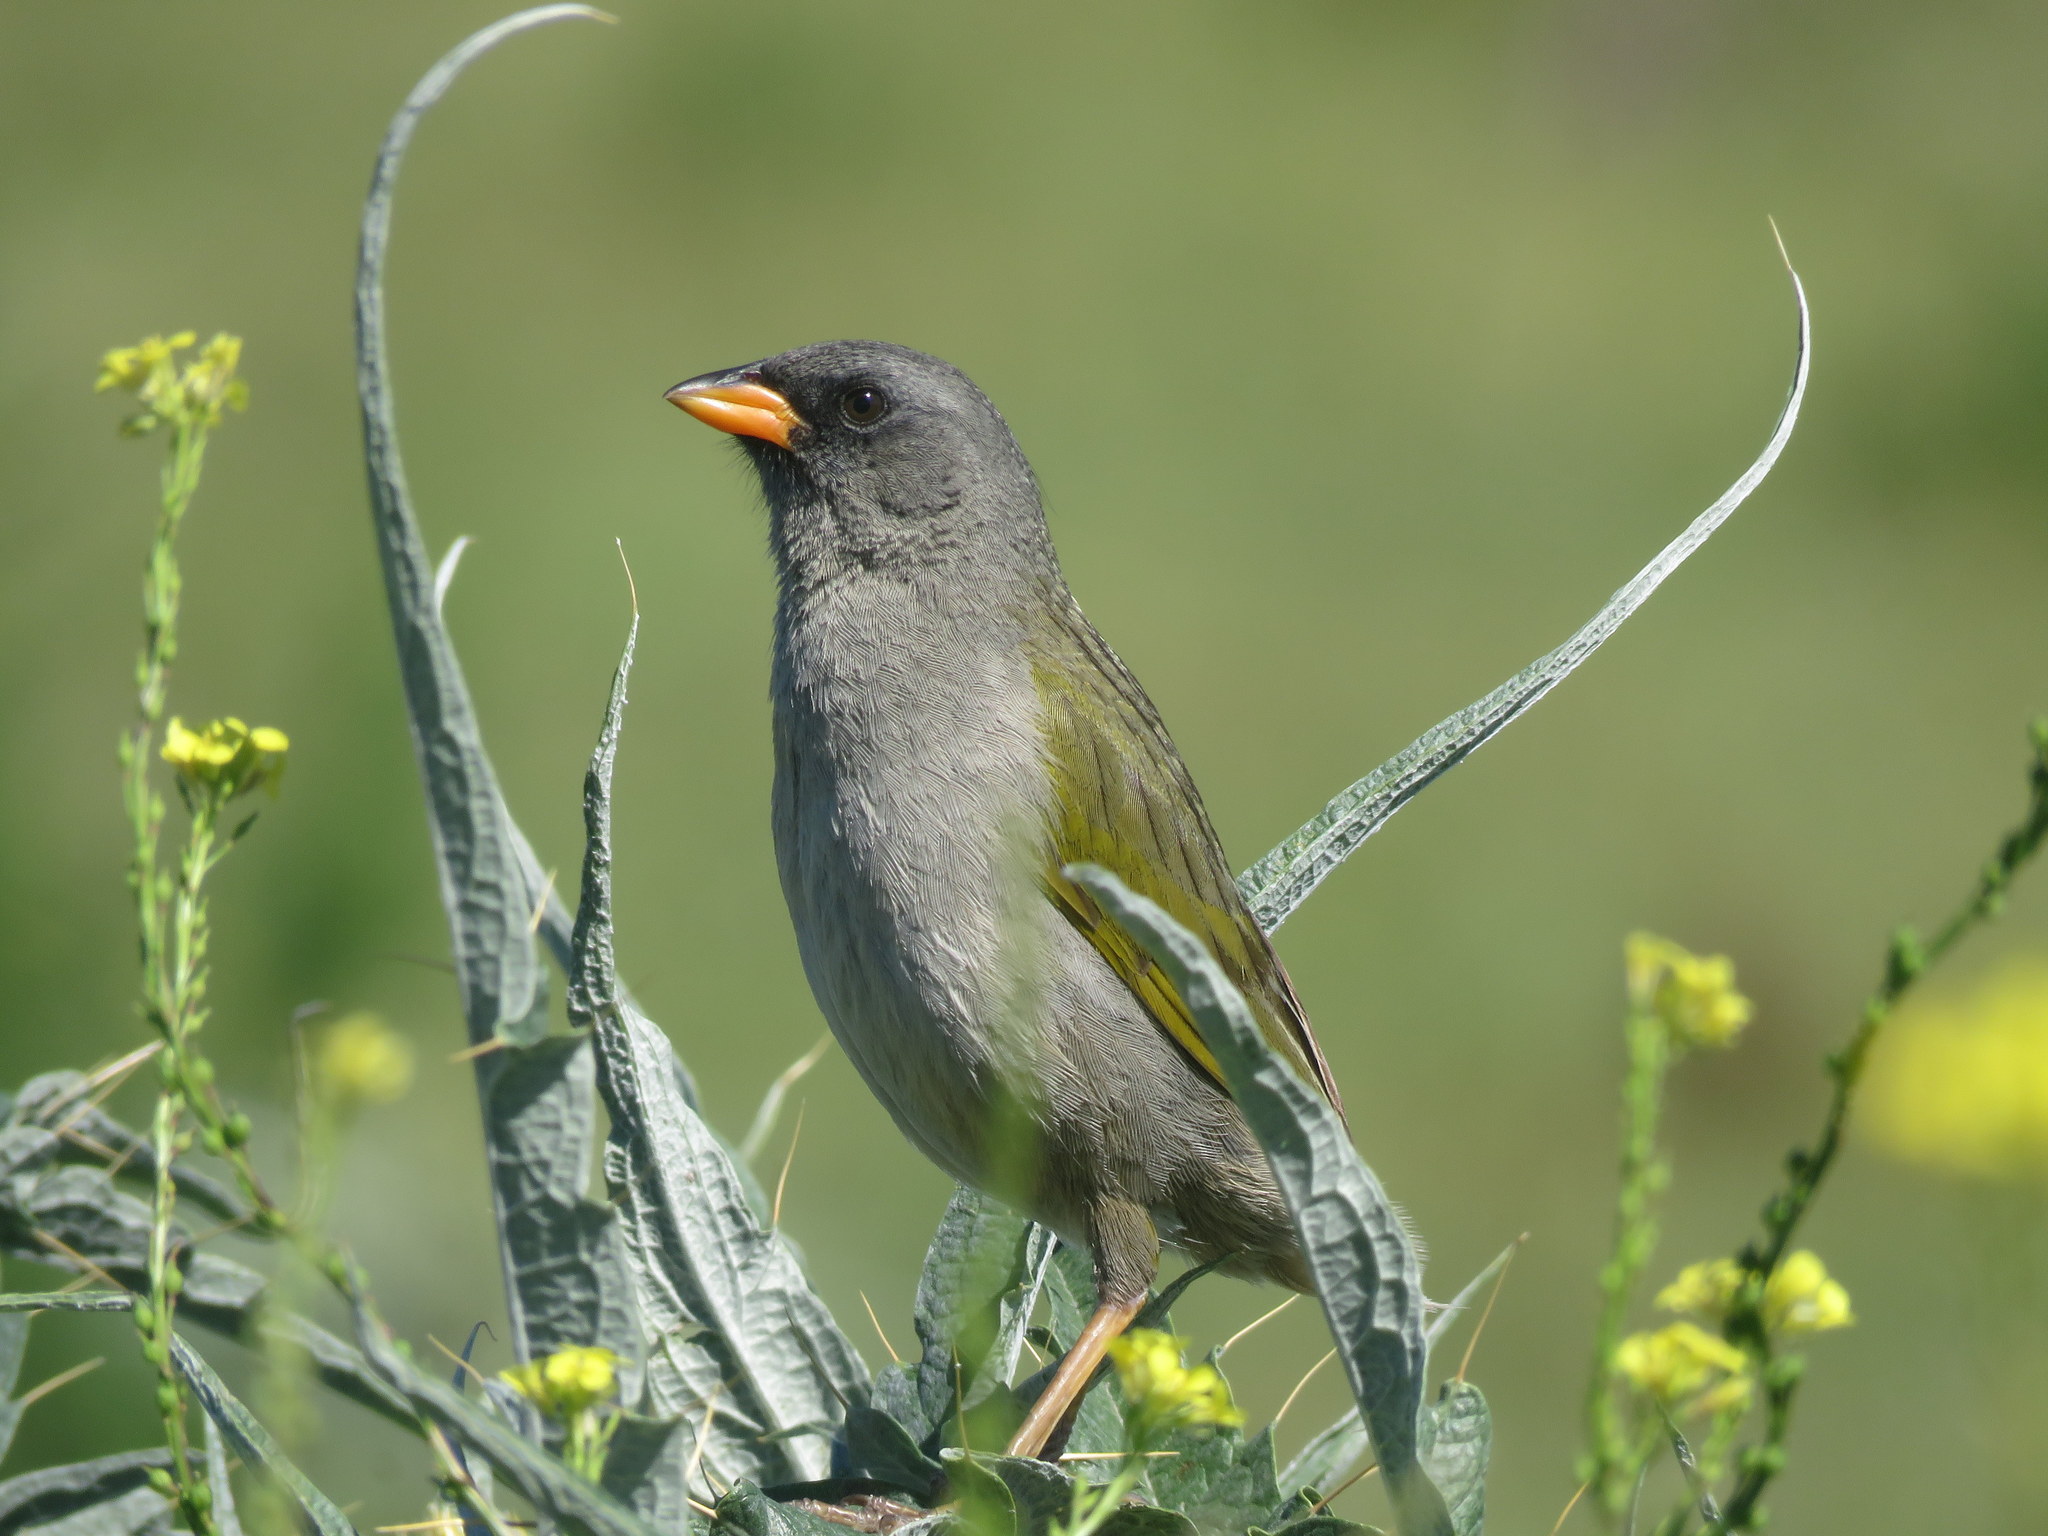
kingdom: Animalia
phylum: Chordata
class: Aves
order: Passeriformes
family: Thraupidae
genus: Embernagra
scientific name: Embernagra platensis
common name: Pampa finch
